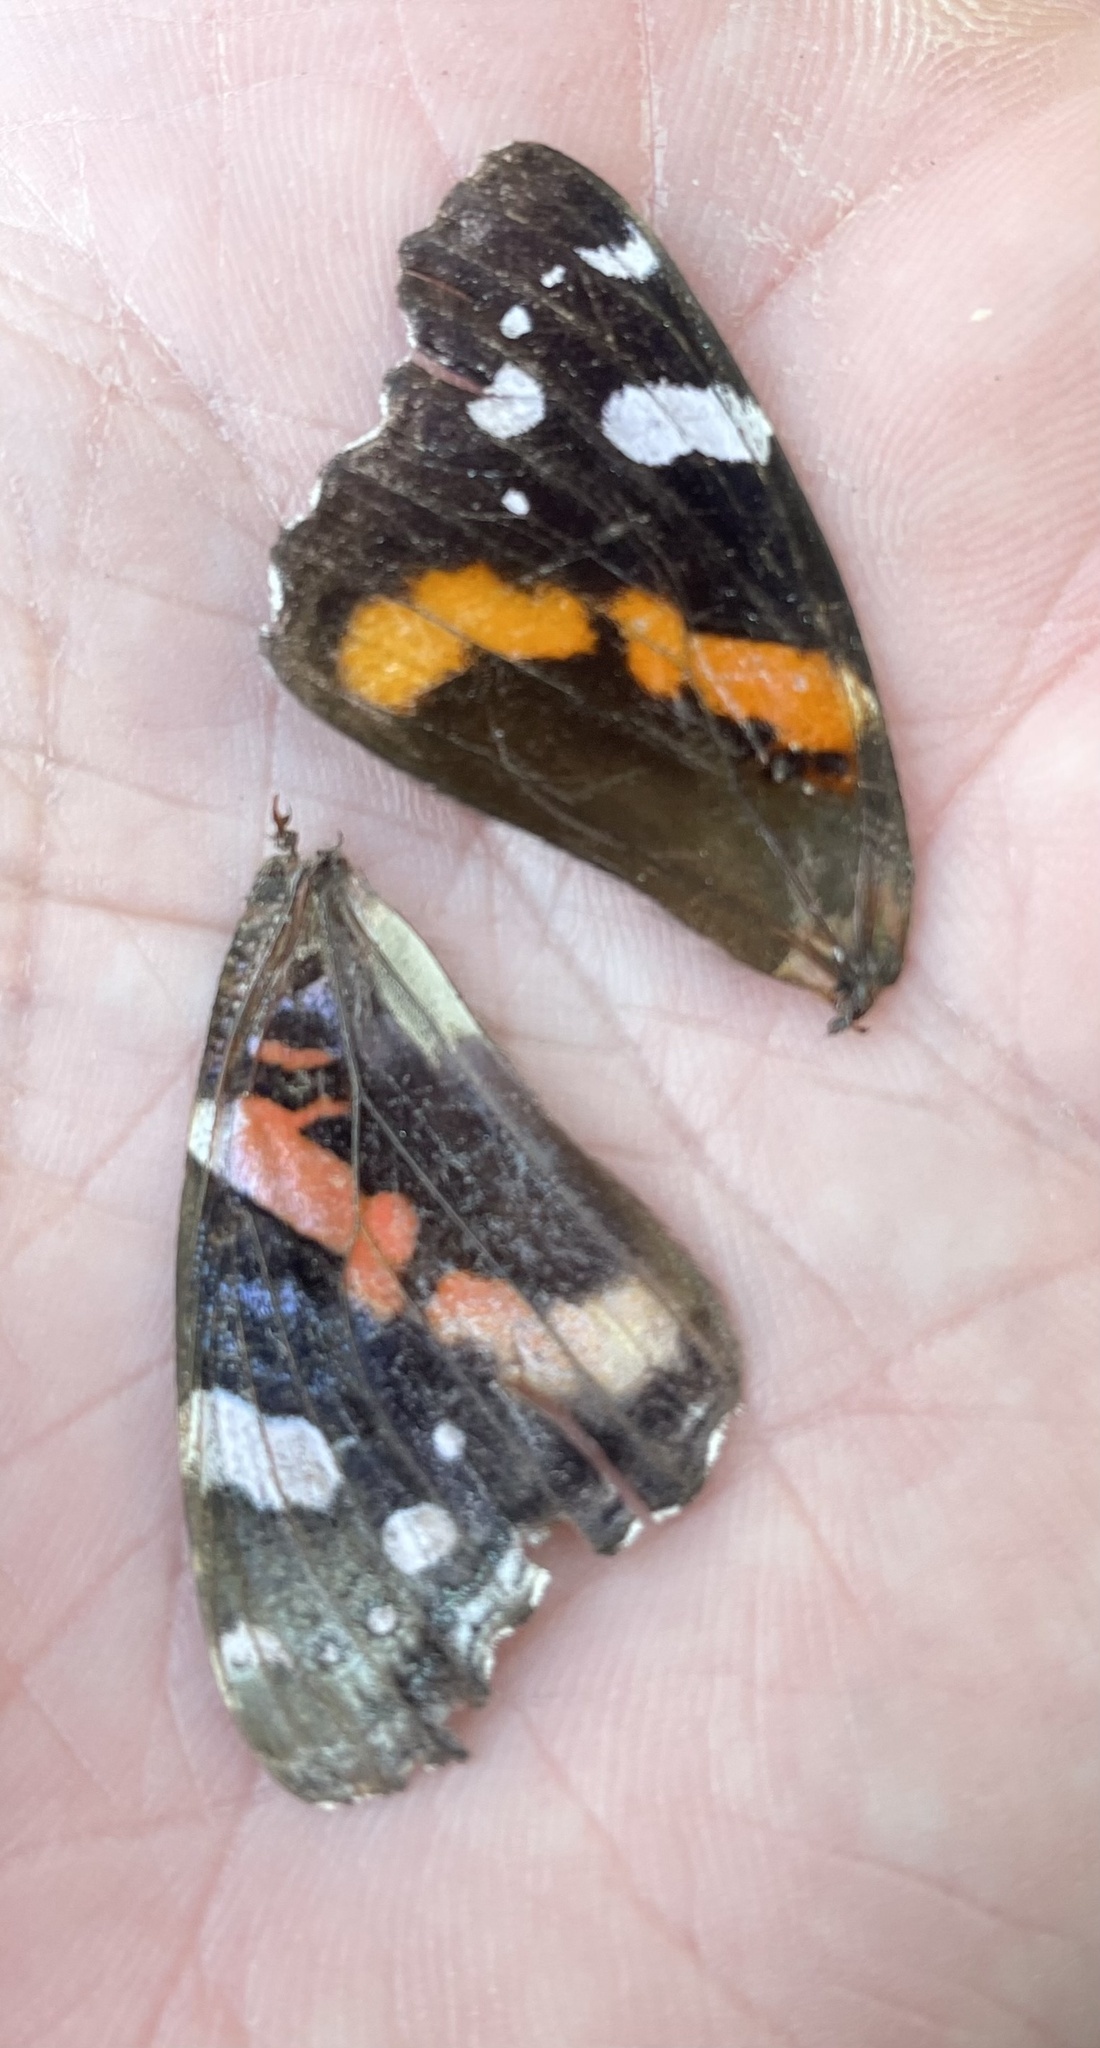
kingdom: Animalia
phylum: Arthropoda
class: Insecta
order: Lepidoptera
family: Nymphalidae
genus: Vanessa
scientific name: Vanessa atalanta
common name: Red admiral
